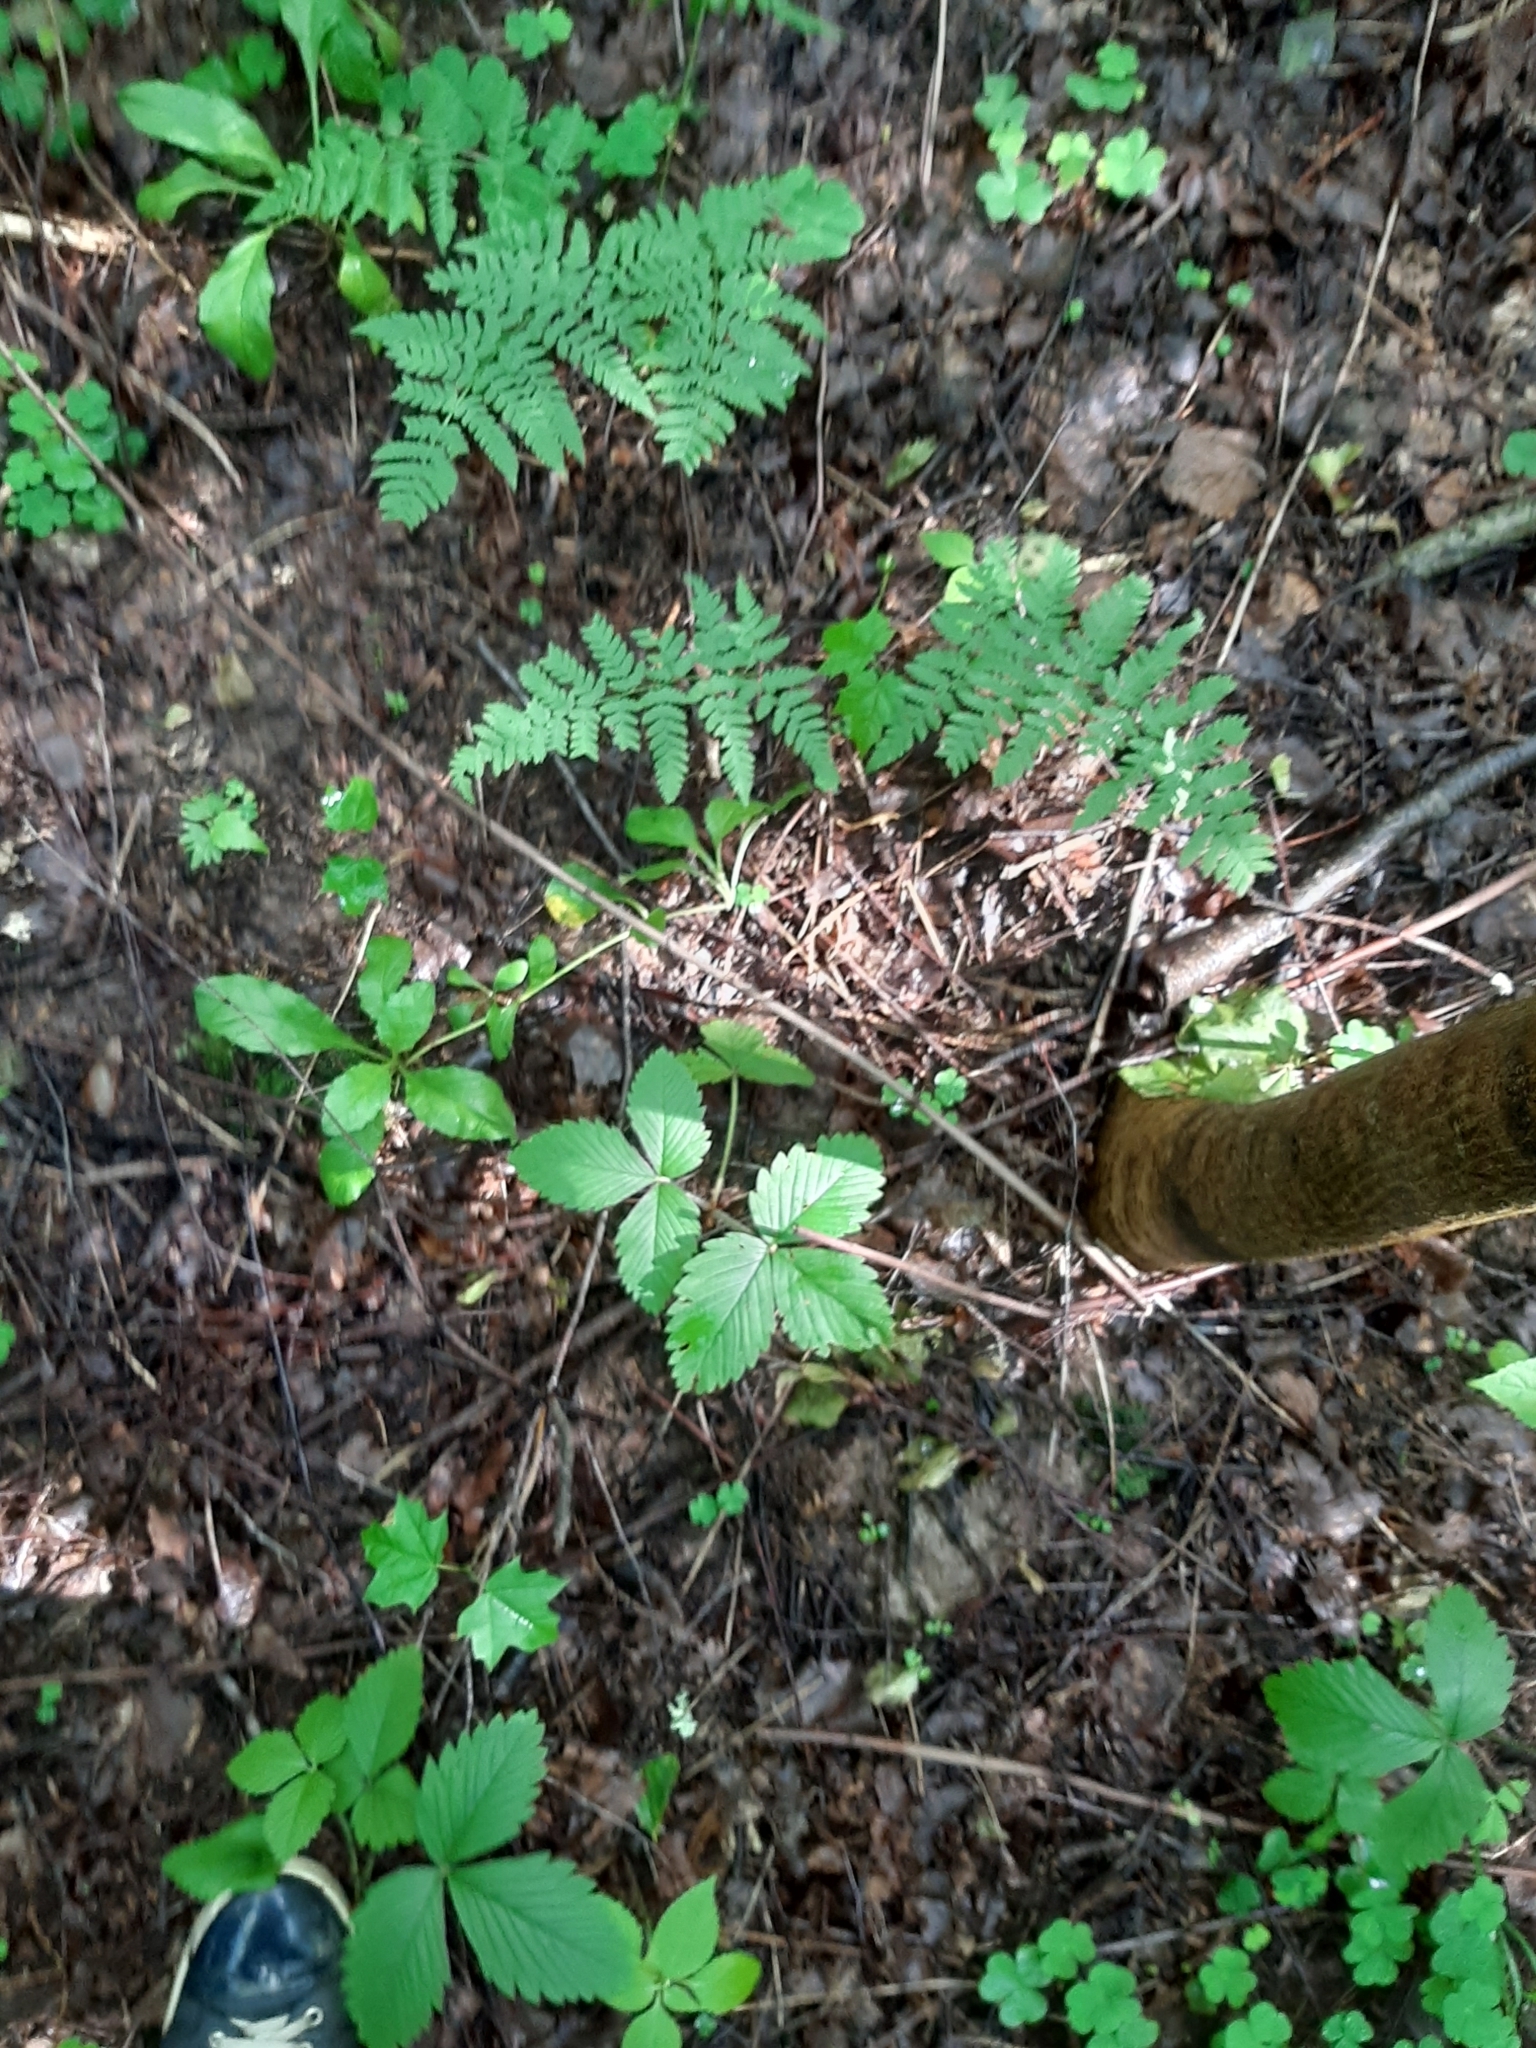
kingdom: Plantae
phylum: Tracheophyta
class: Magnoliopsida
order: Rosales
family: Rosaceae
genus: Fragaria
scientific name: Fragaria vesca
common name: Wild strawberry
